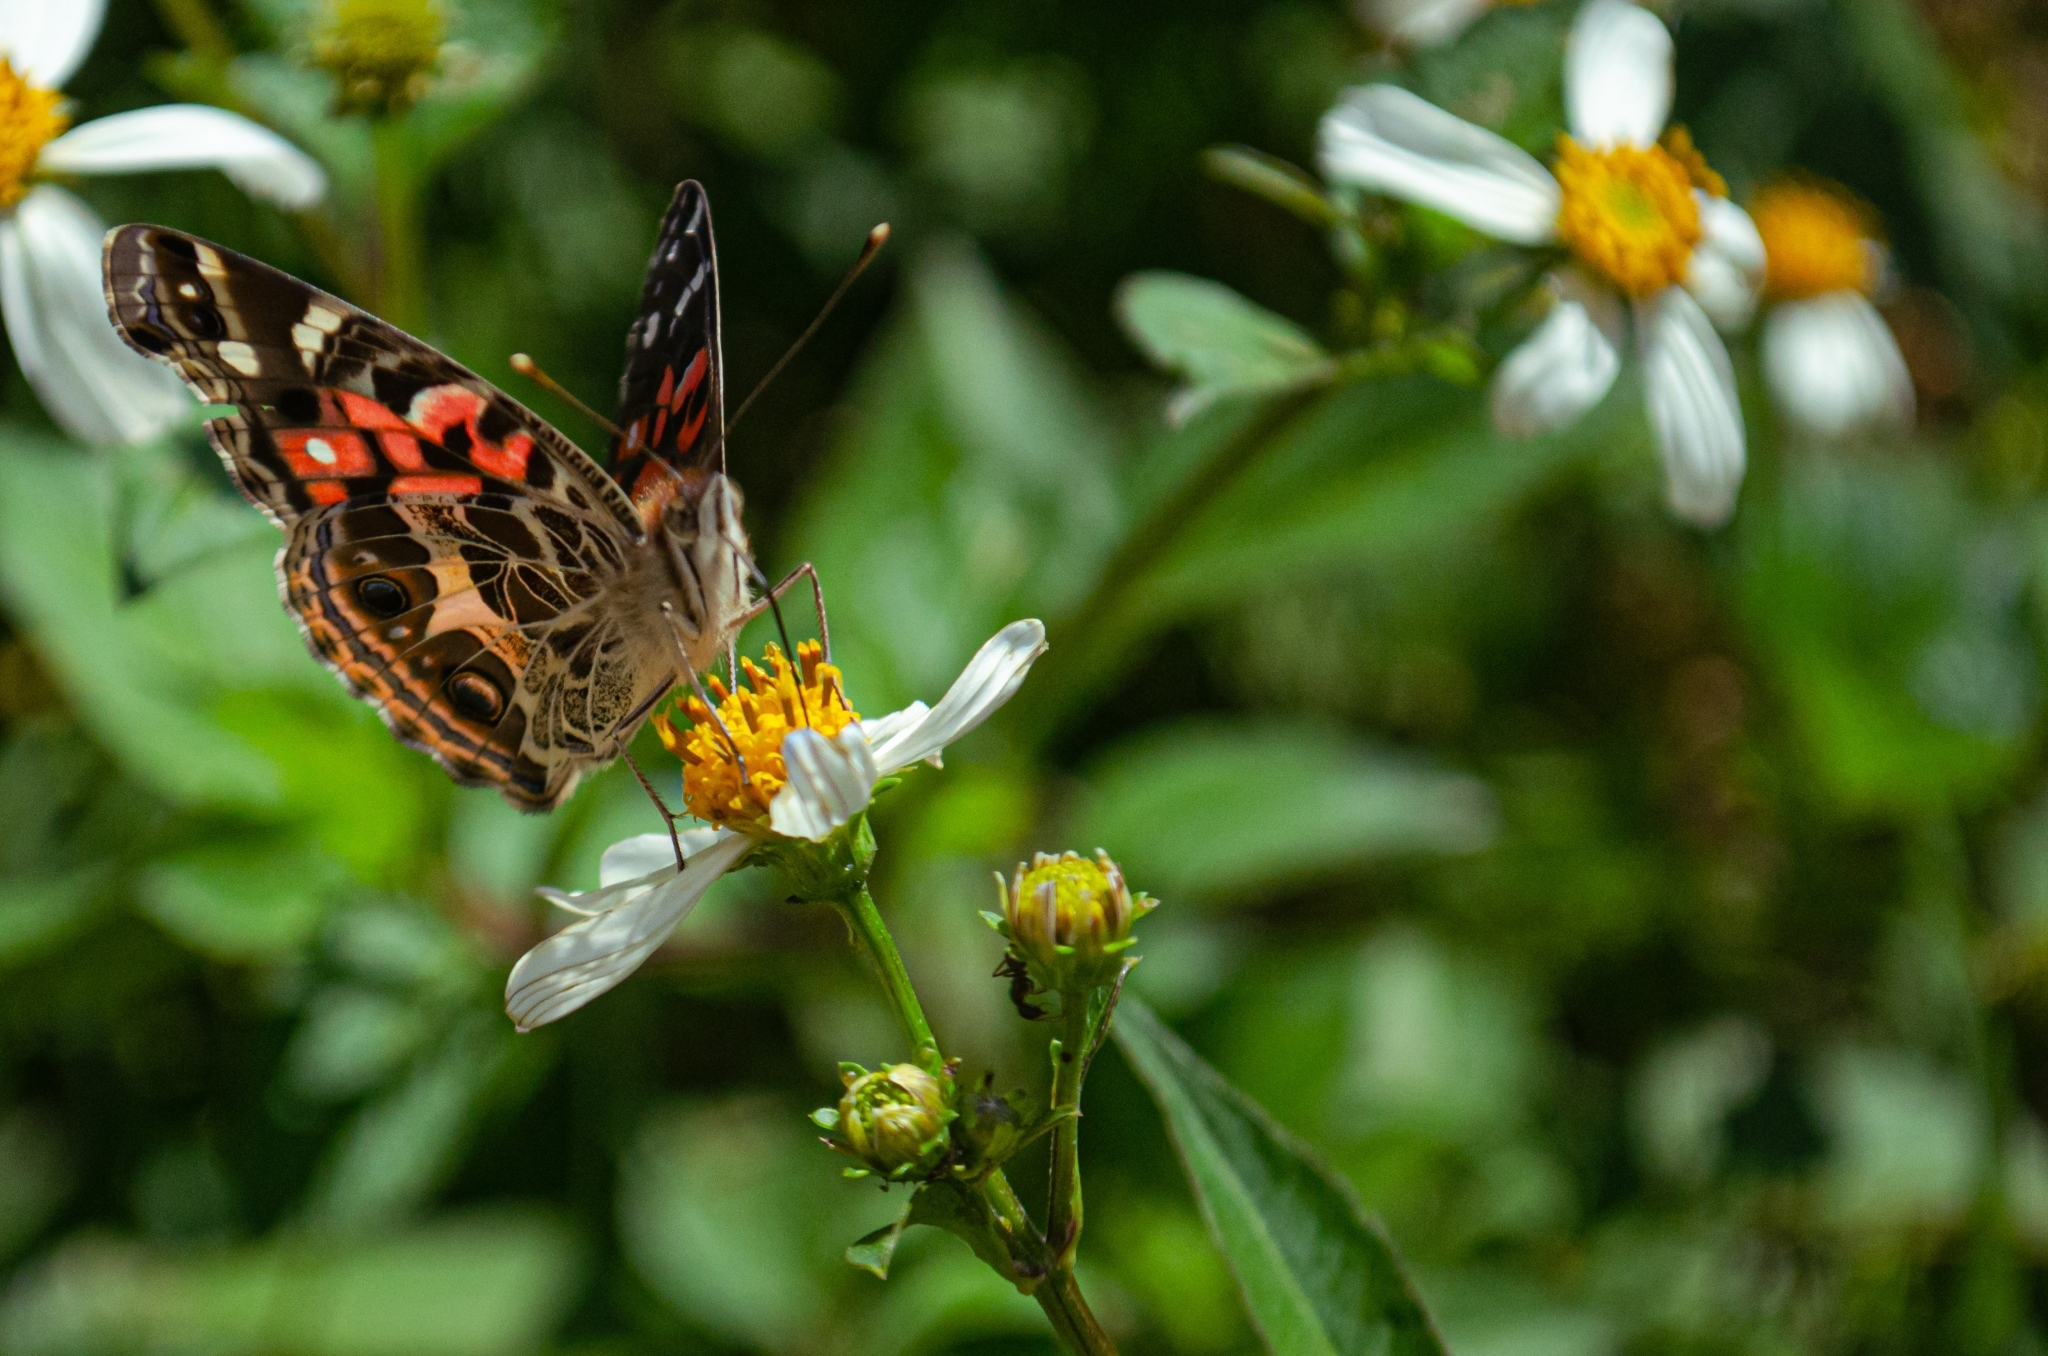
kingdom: Animalia
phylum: Arthropoda
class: Insecta
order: Lepidoptera
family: Nymphalidae
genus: Vanessa
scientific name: Vanessa braziliensis
